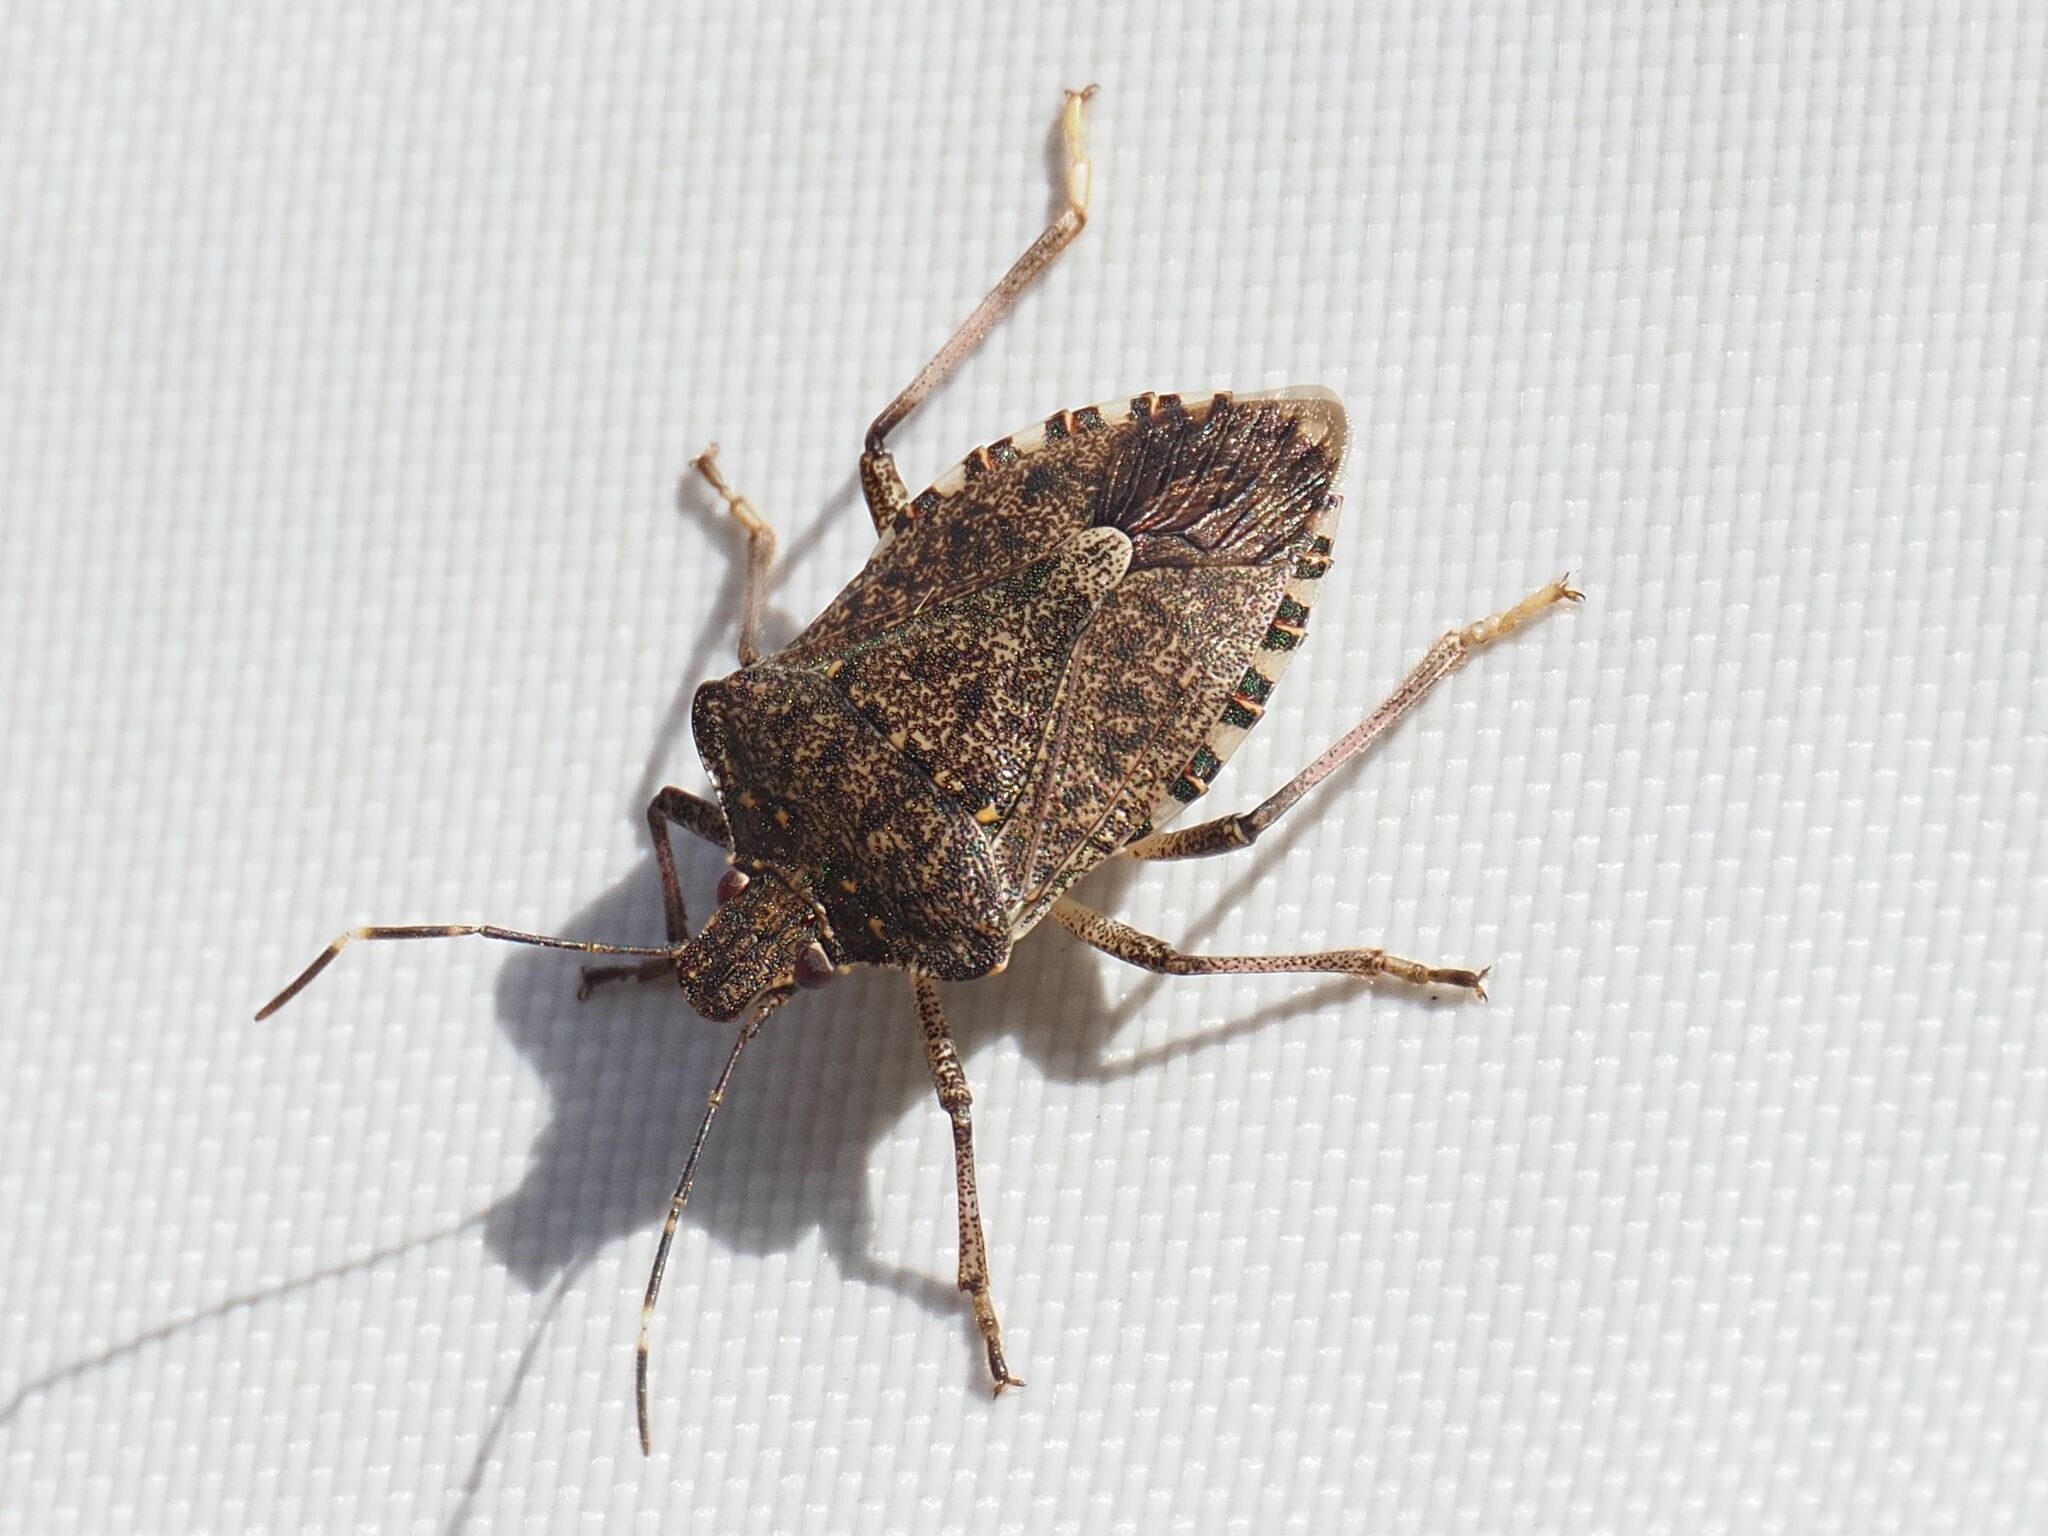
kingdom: Animalia
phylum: Arthropoda
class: Insecta
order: Hemiptera
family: Pentatomidae
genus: Halyomorpha
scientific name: Halyomorpha halys
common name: Brown marmorated stink bug
